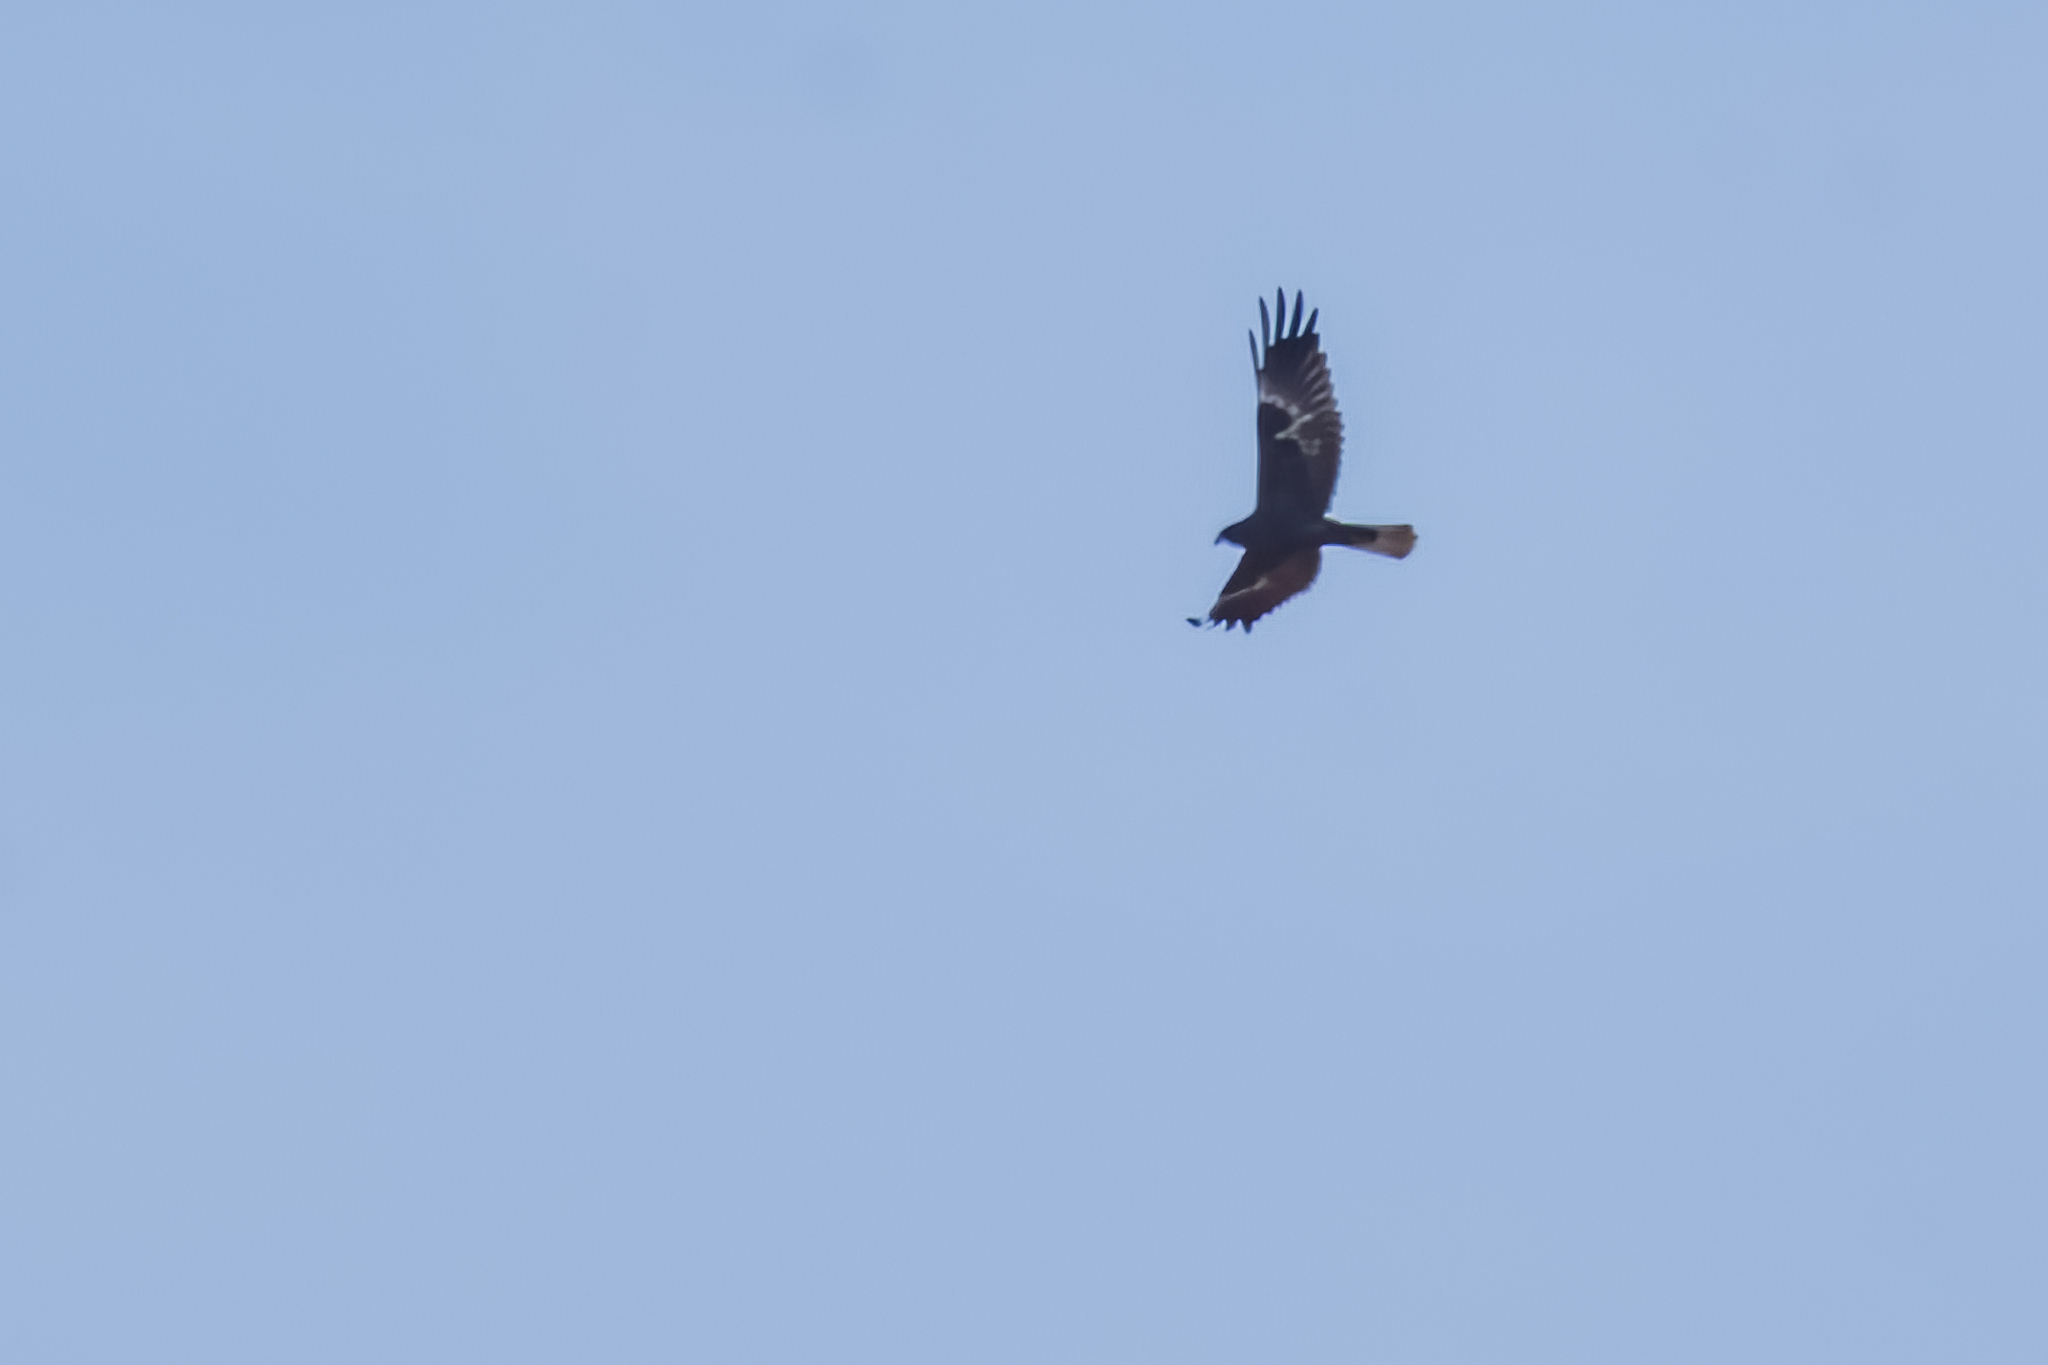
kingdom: Animalia
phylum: Chordata
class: Aves
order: Accipitriformes
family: Accipitridae
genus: Circus
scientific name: Circus aeruginosus
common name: Western marsh harrier
